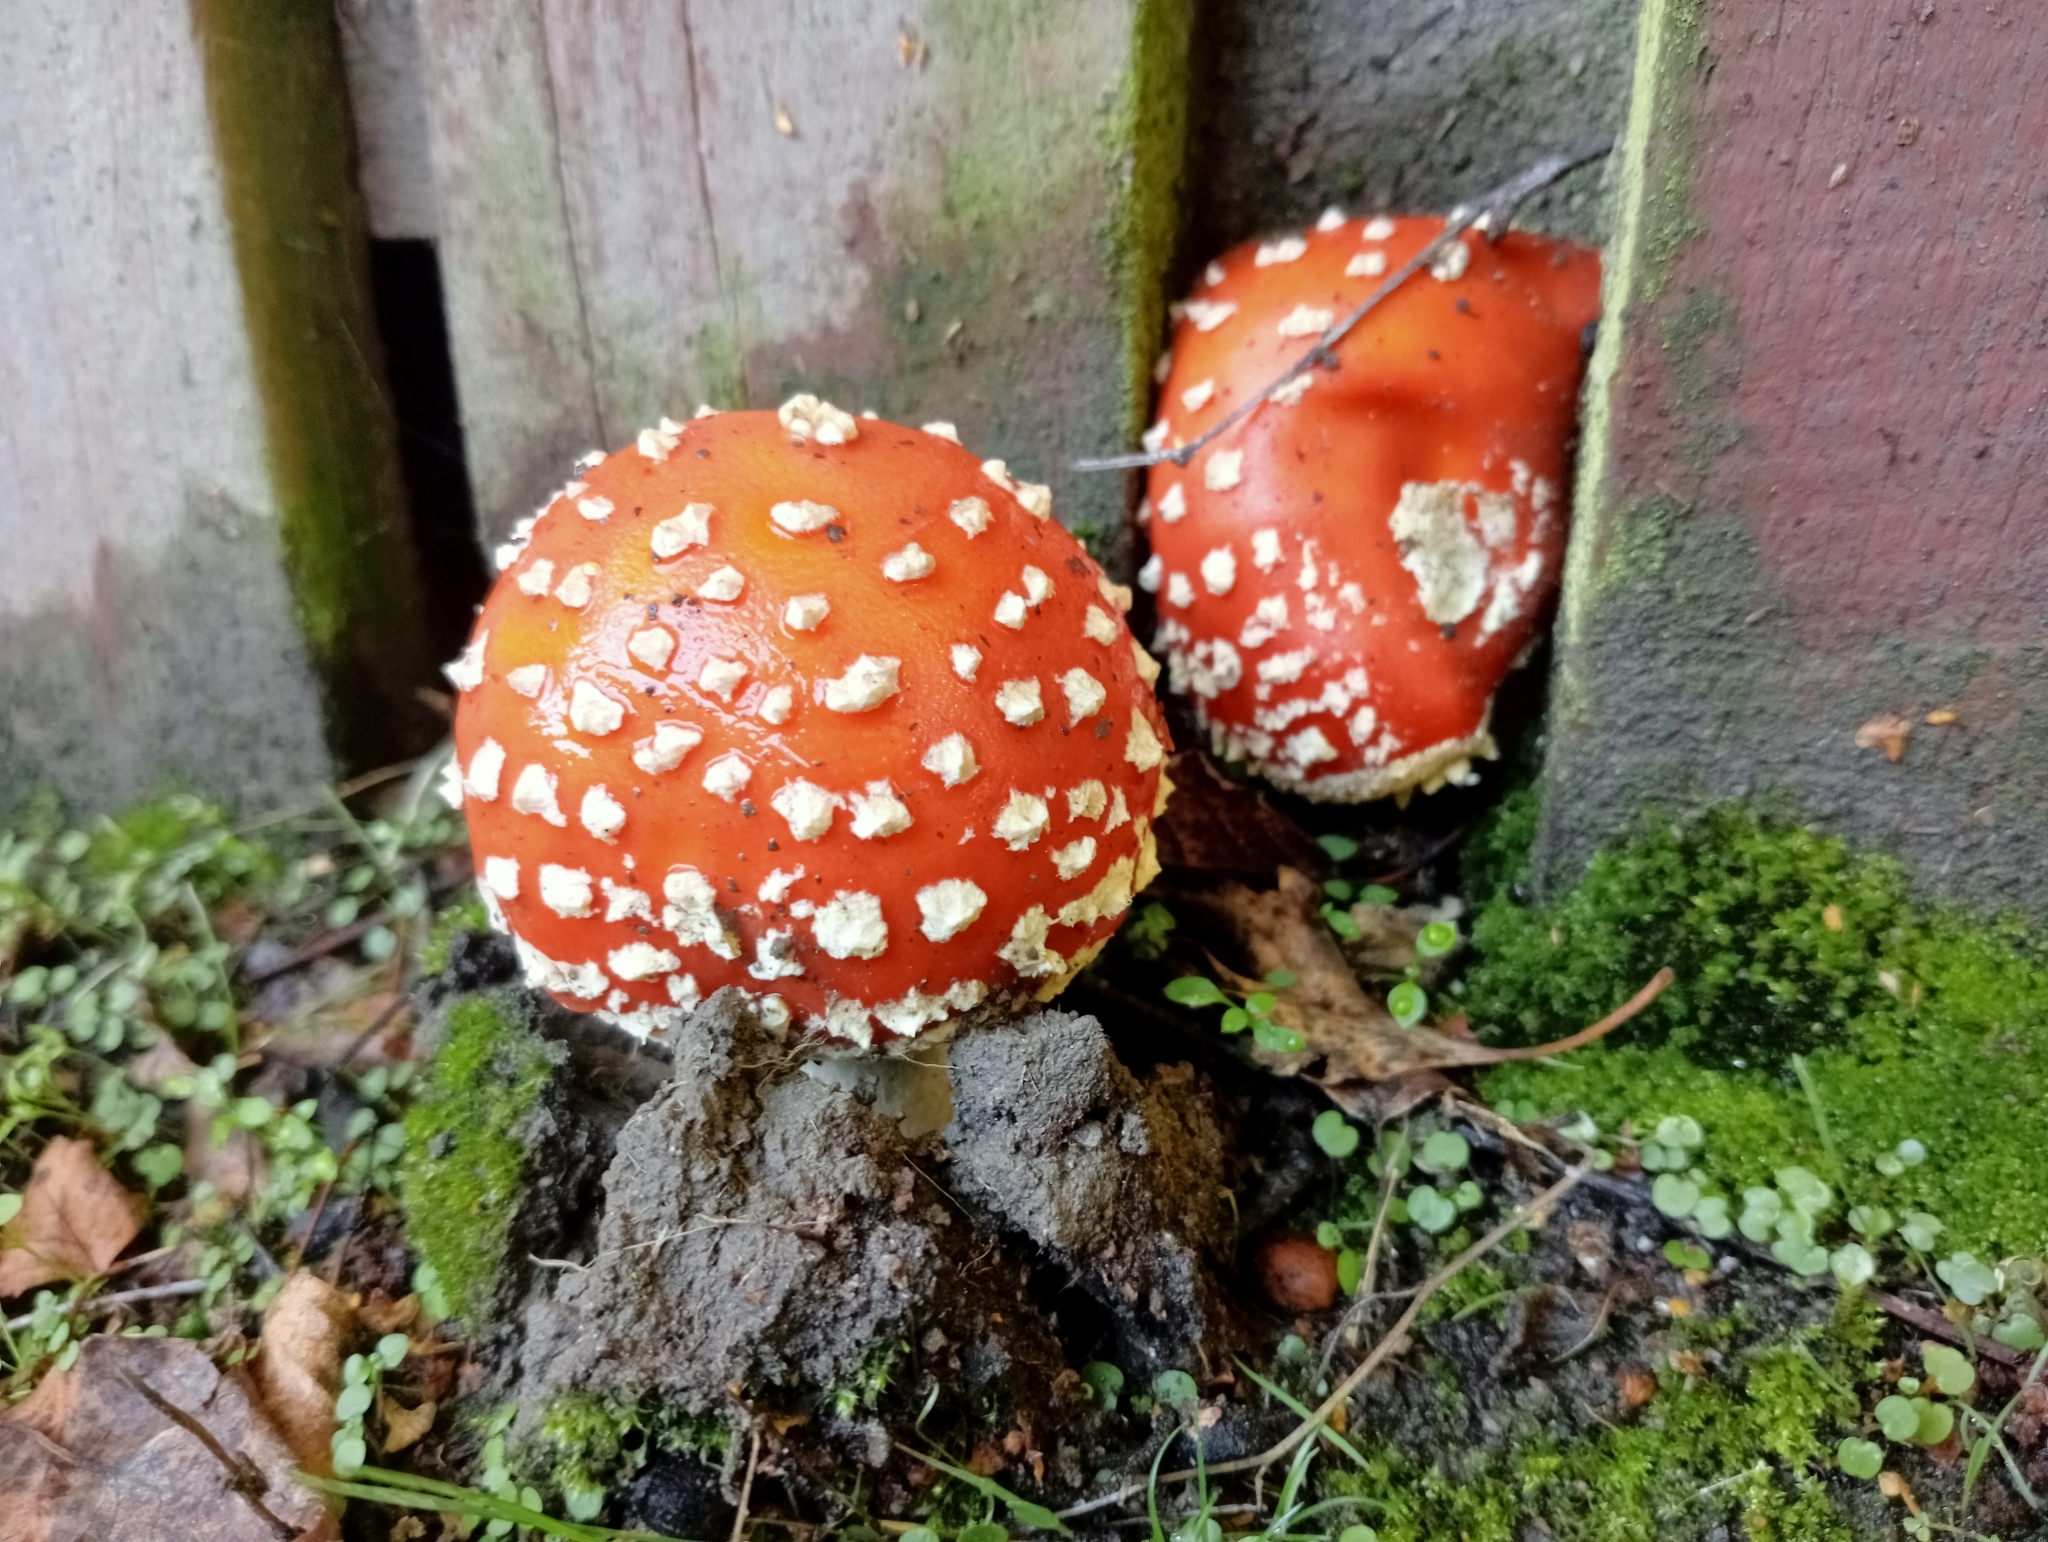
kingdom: Fungi
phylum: Basidiomycota
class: Agaricomycetes
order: Agaricales
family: Amanitaceae
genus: Amanita
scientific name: Amanita muscaria
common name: Fly agaric
